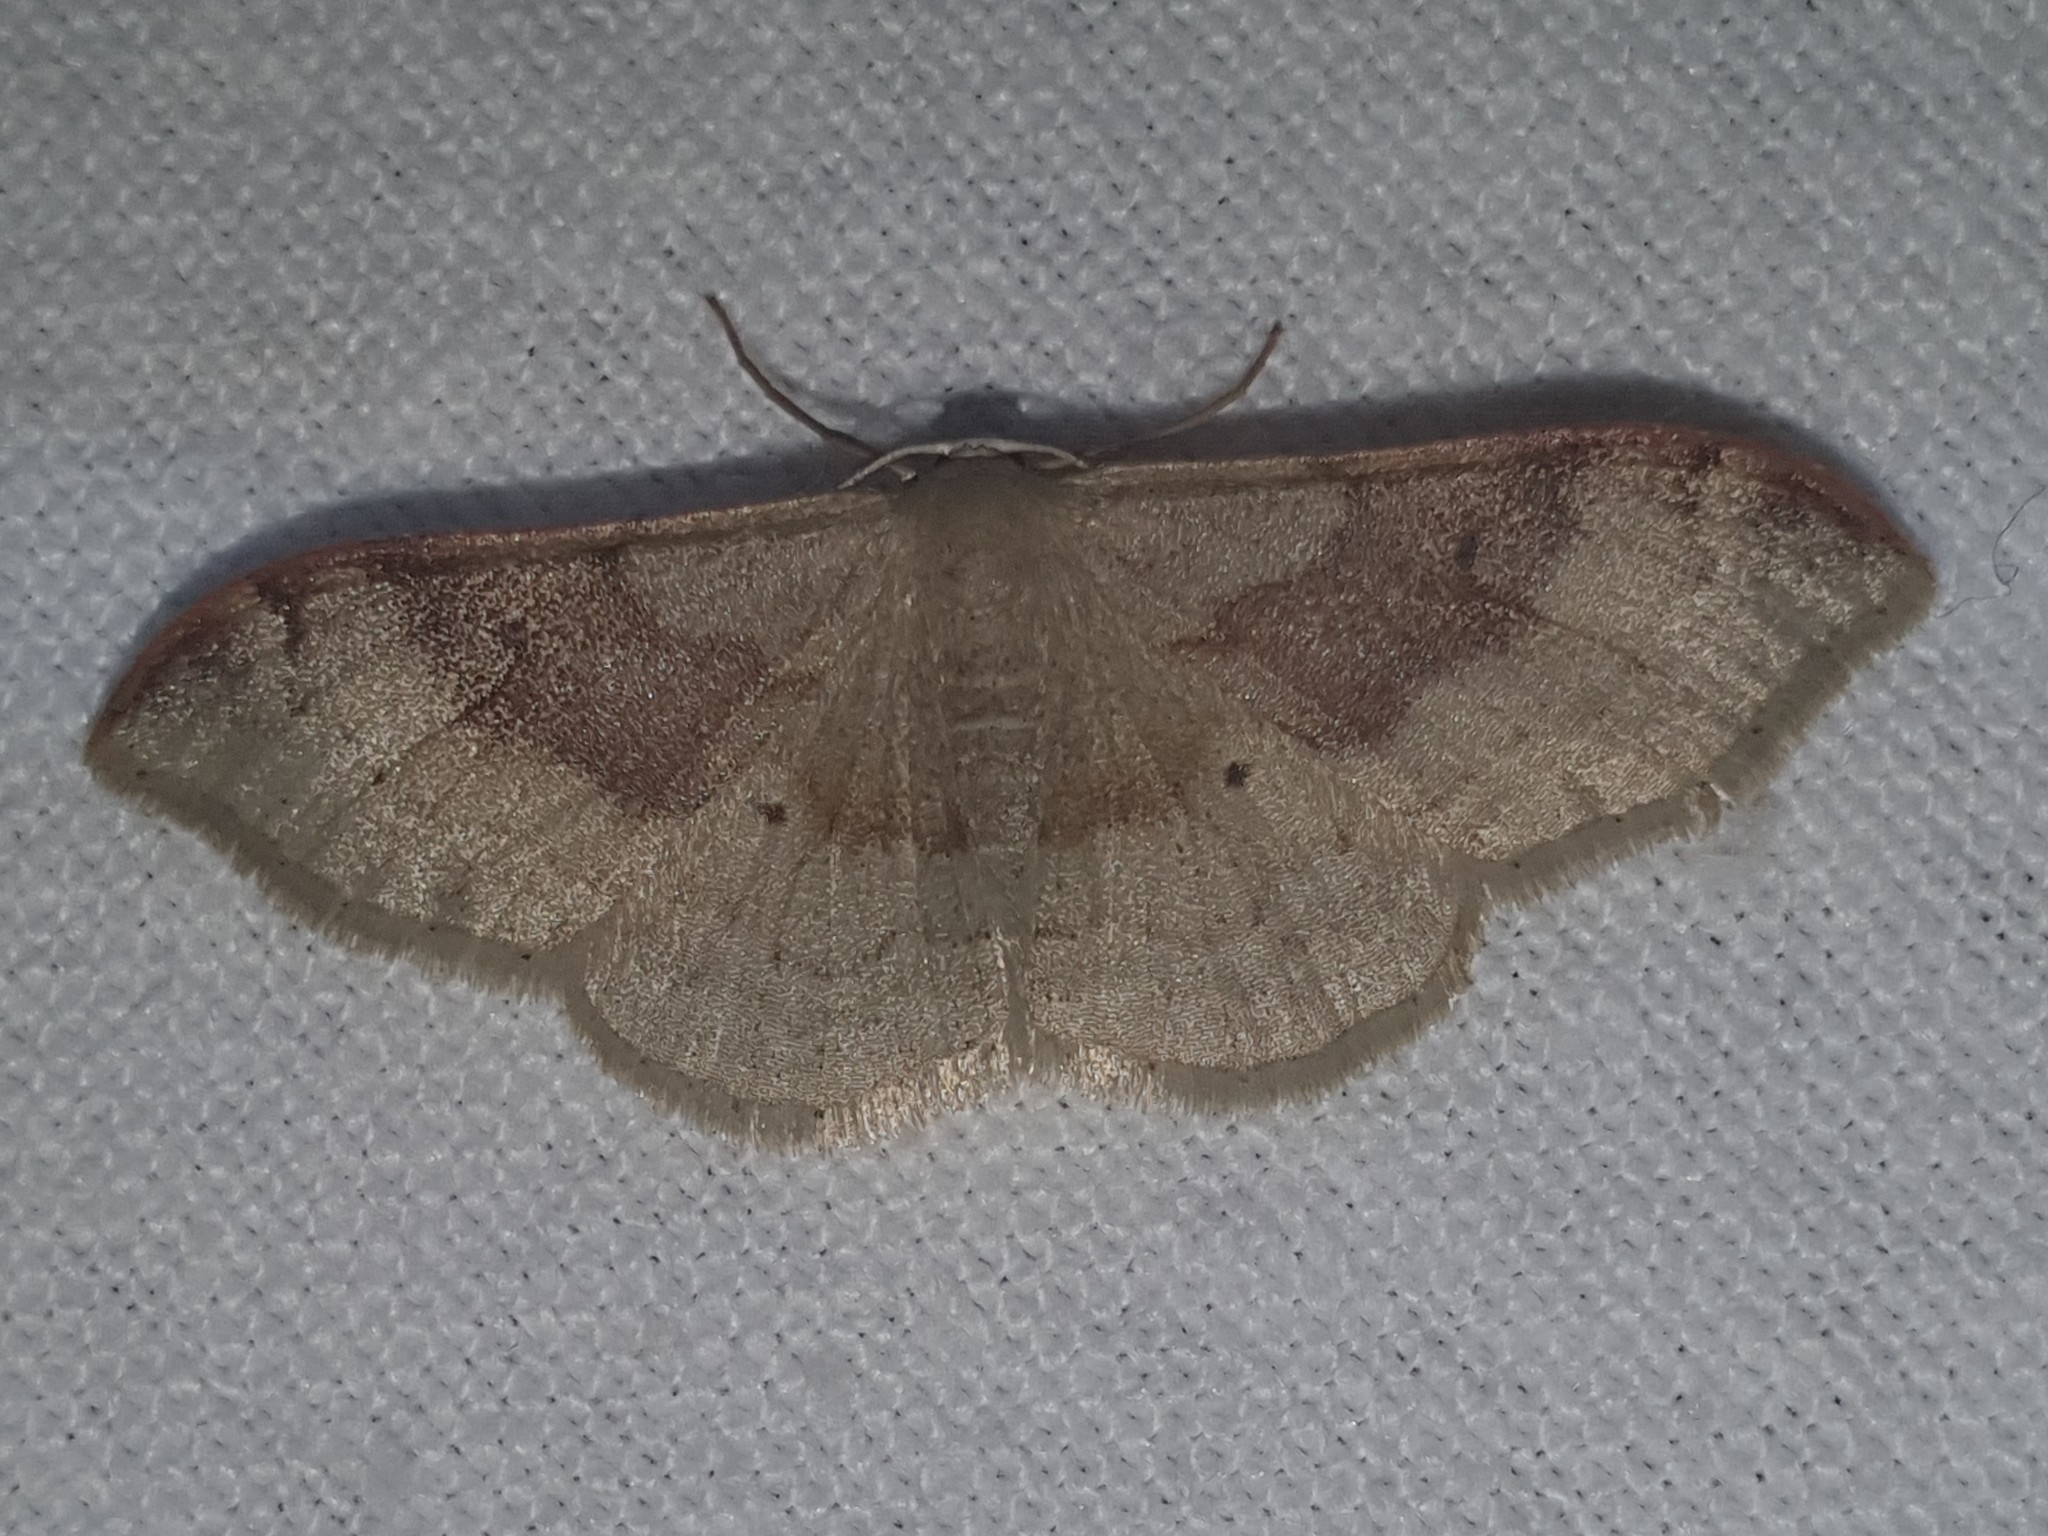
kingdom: Animalia
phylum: Arthropoda
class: Insecta
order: Lepidoptera
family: Geometridae
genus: Idaea
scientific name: Idaea degeneraria
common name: Portland ribbon wave
